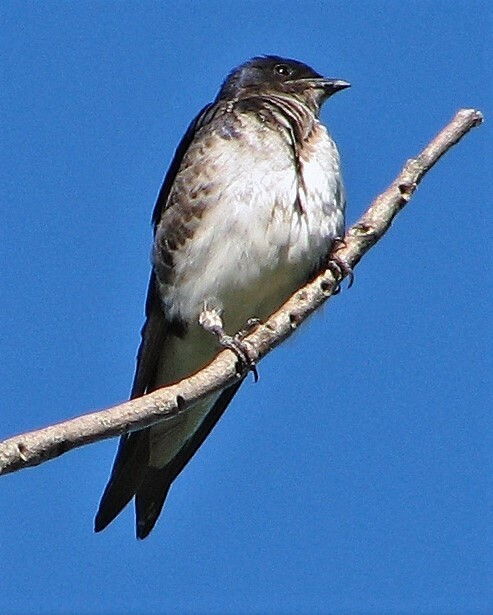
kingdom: Animalia
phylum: Chordata
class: Aves
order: Passeriformes
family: Hirundinidae
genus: Progne
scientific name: Progne chalybea
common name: Grey-breasted martin
